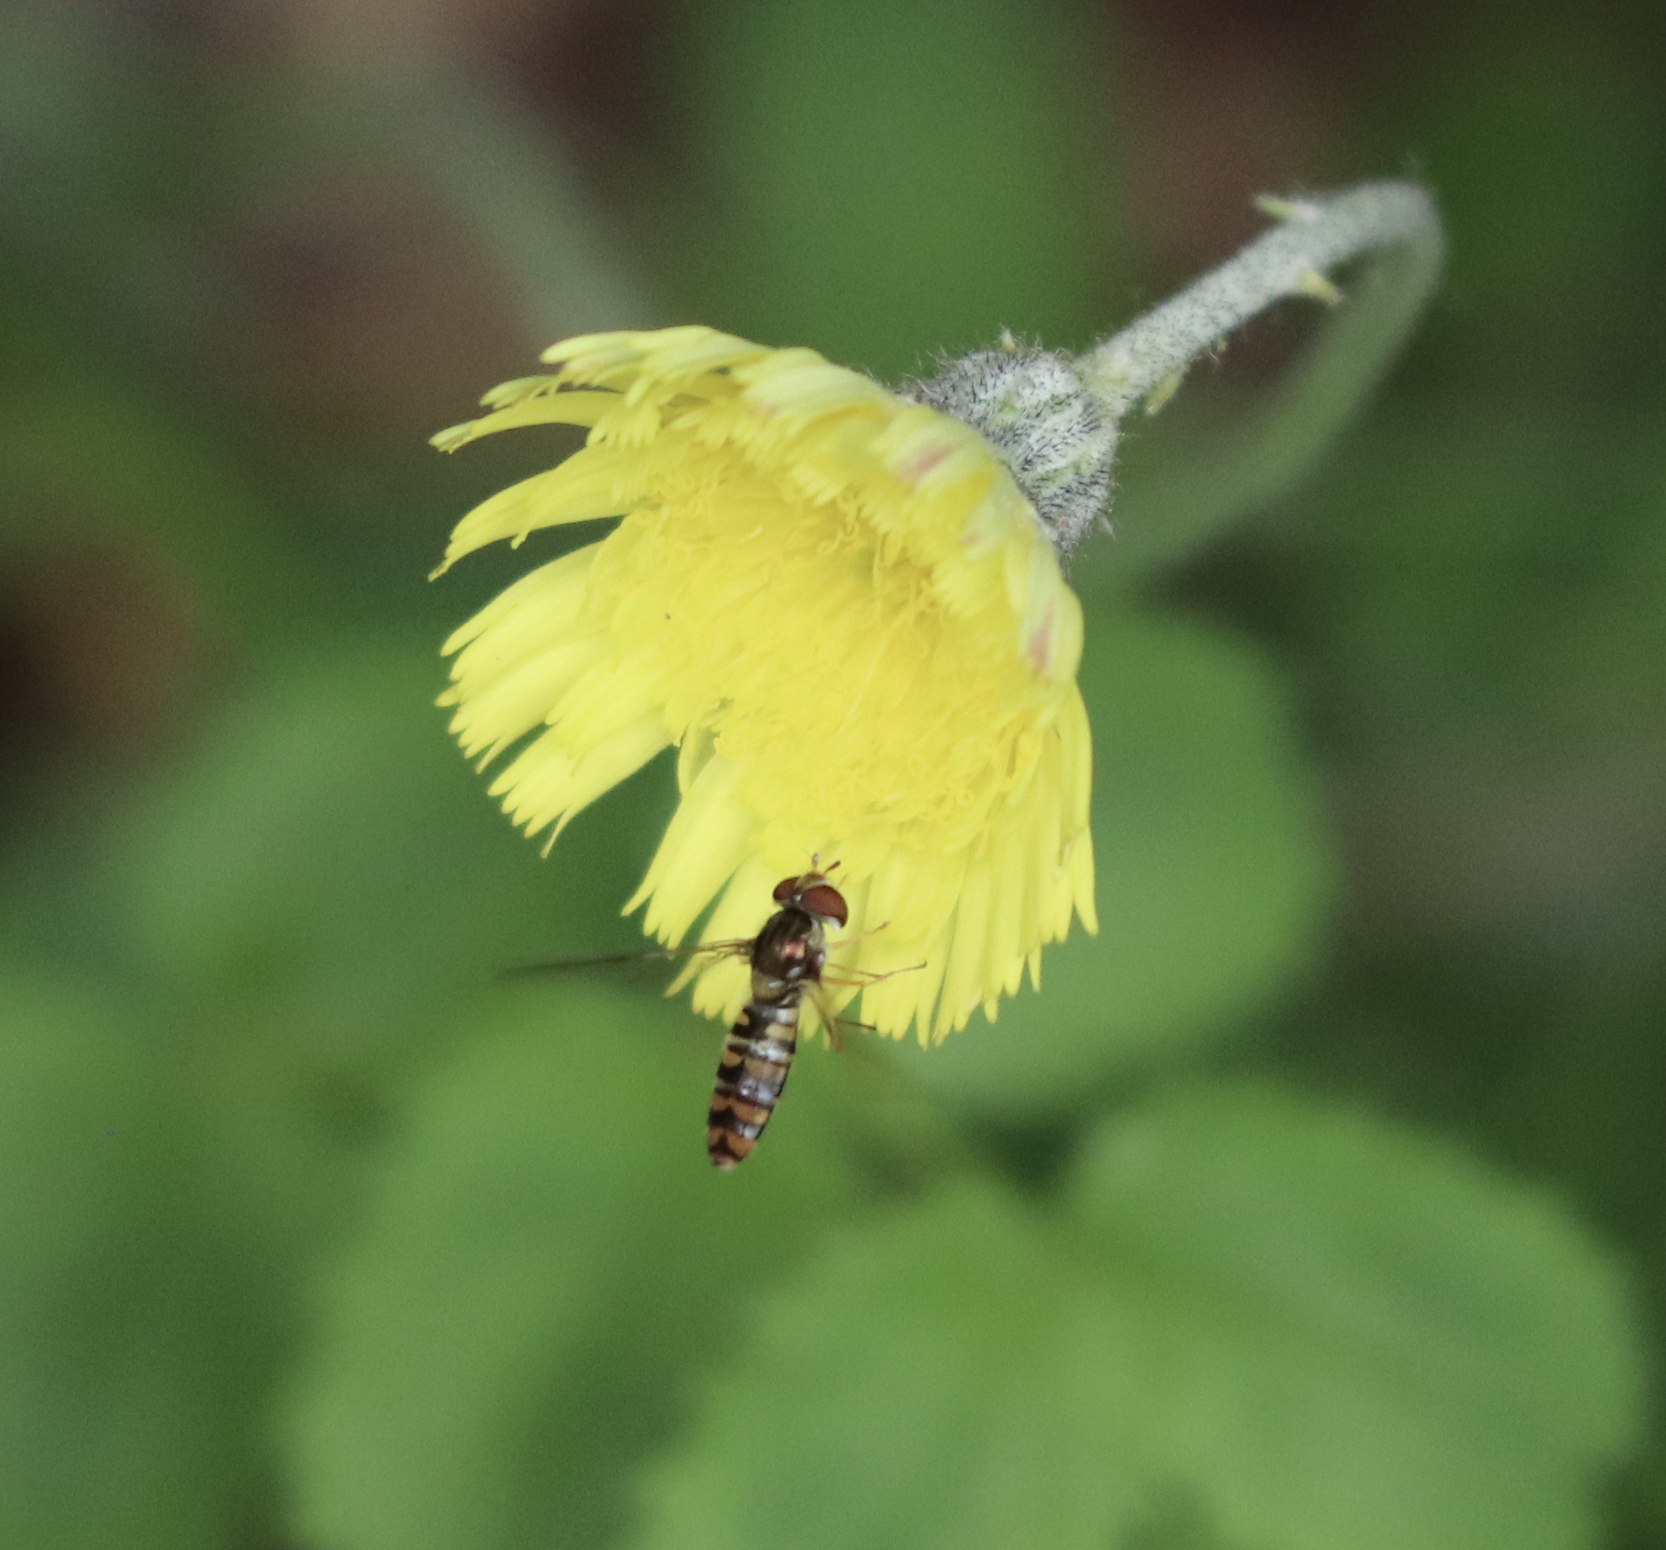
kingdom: Animalia
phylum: Arthropoda
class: Insecta
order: Diptera
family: Syrphidae
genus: Episyrphus
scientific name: Episyrphus balteatus
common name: Marmalade hoverfly
